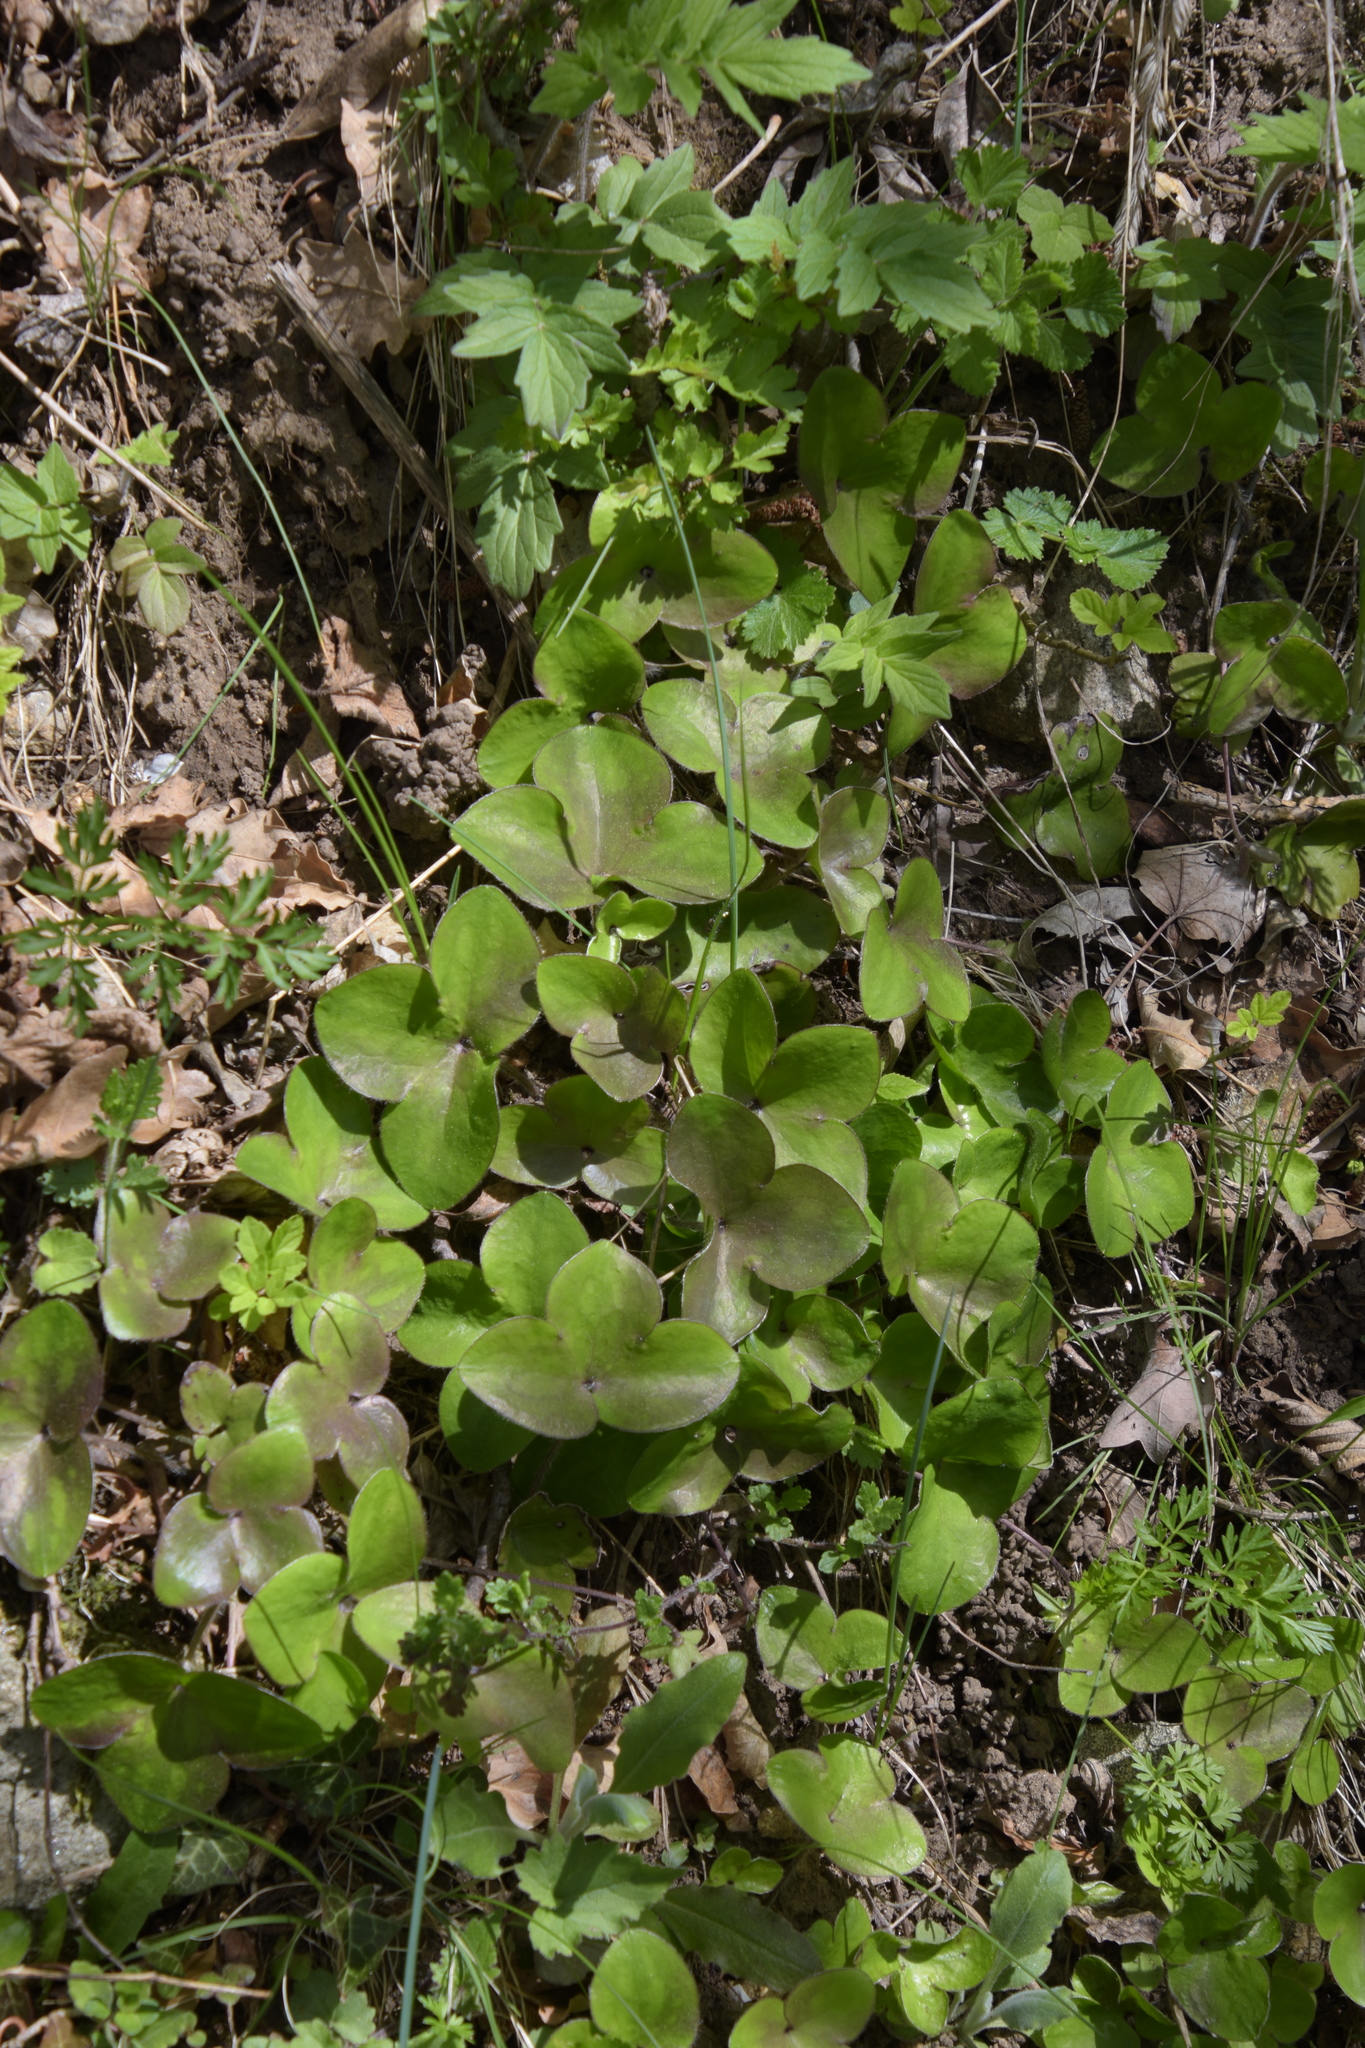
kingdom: Plantae
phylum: Tracheophyta
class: Magnoliopsida
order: Ranunculales
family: Ranunculaceae
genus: Hepatica
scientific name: Hepatica nobilis
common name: Liverleaf
